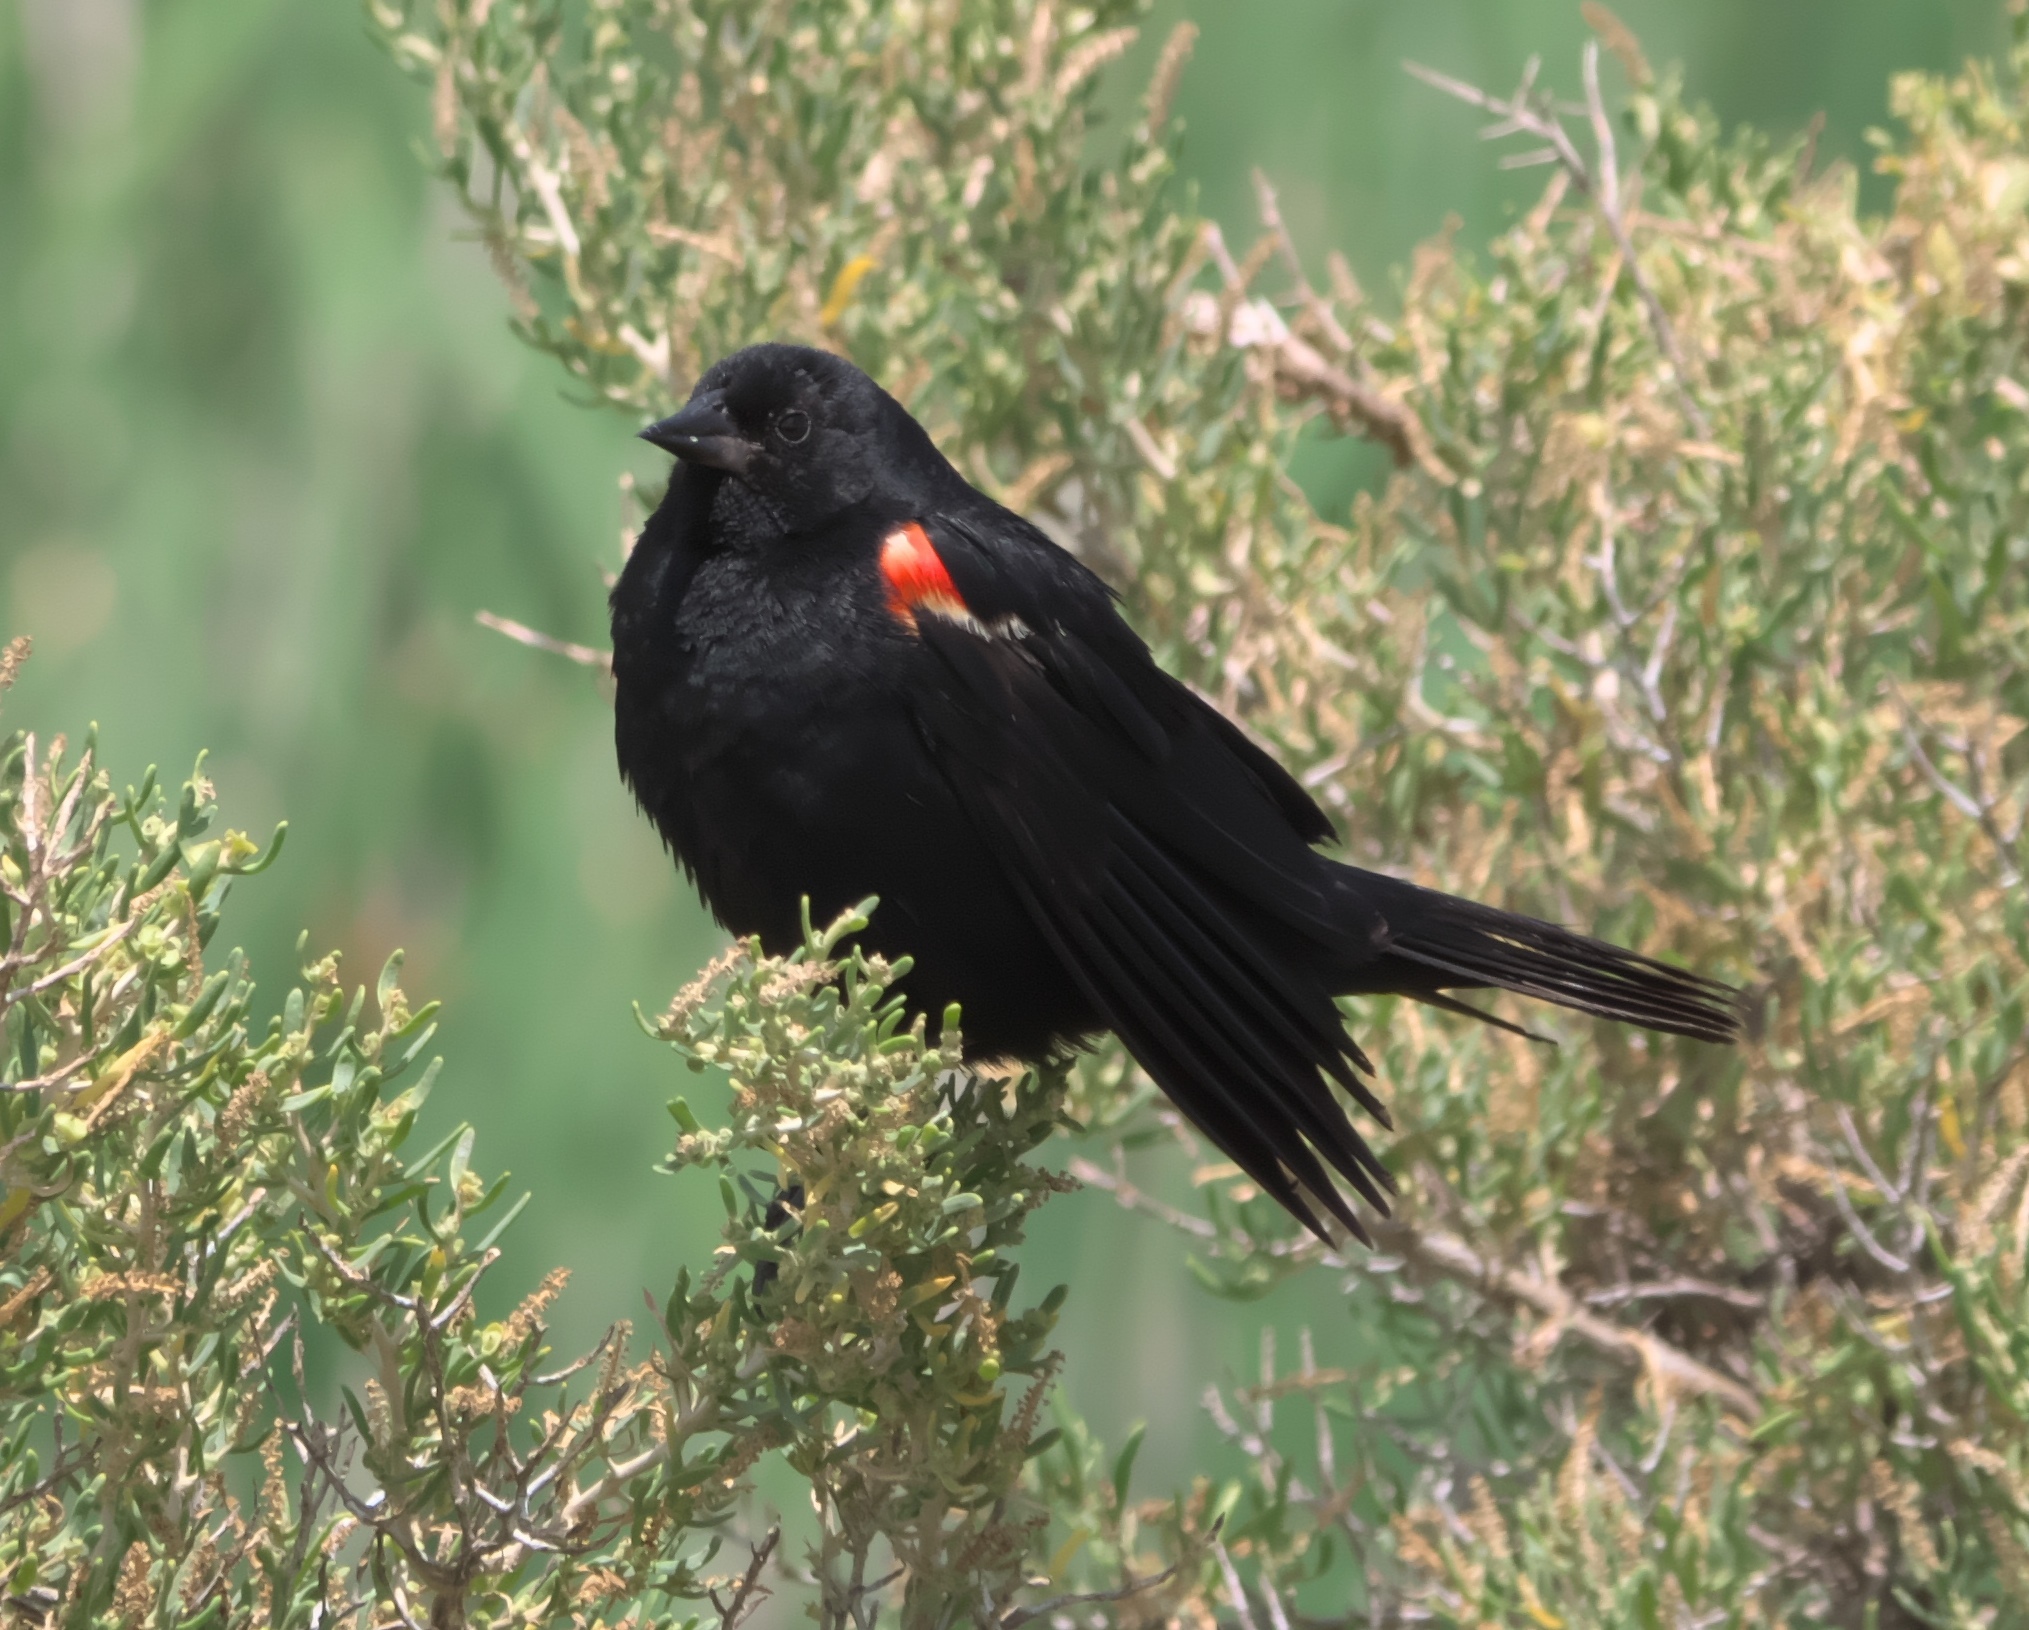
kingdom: Animalia
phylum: Chordata
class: Aves
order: Passeriformes
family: Icteridae
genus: Agelaius
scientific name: Agelaius phoeniceus
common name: Red-winged blackbird
